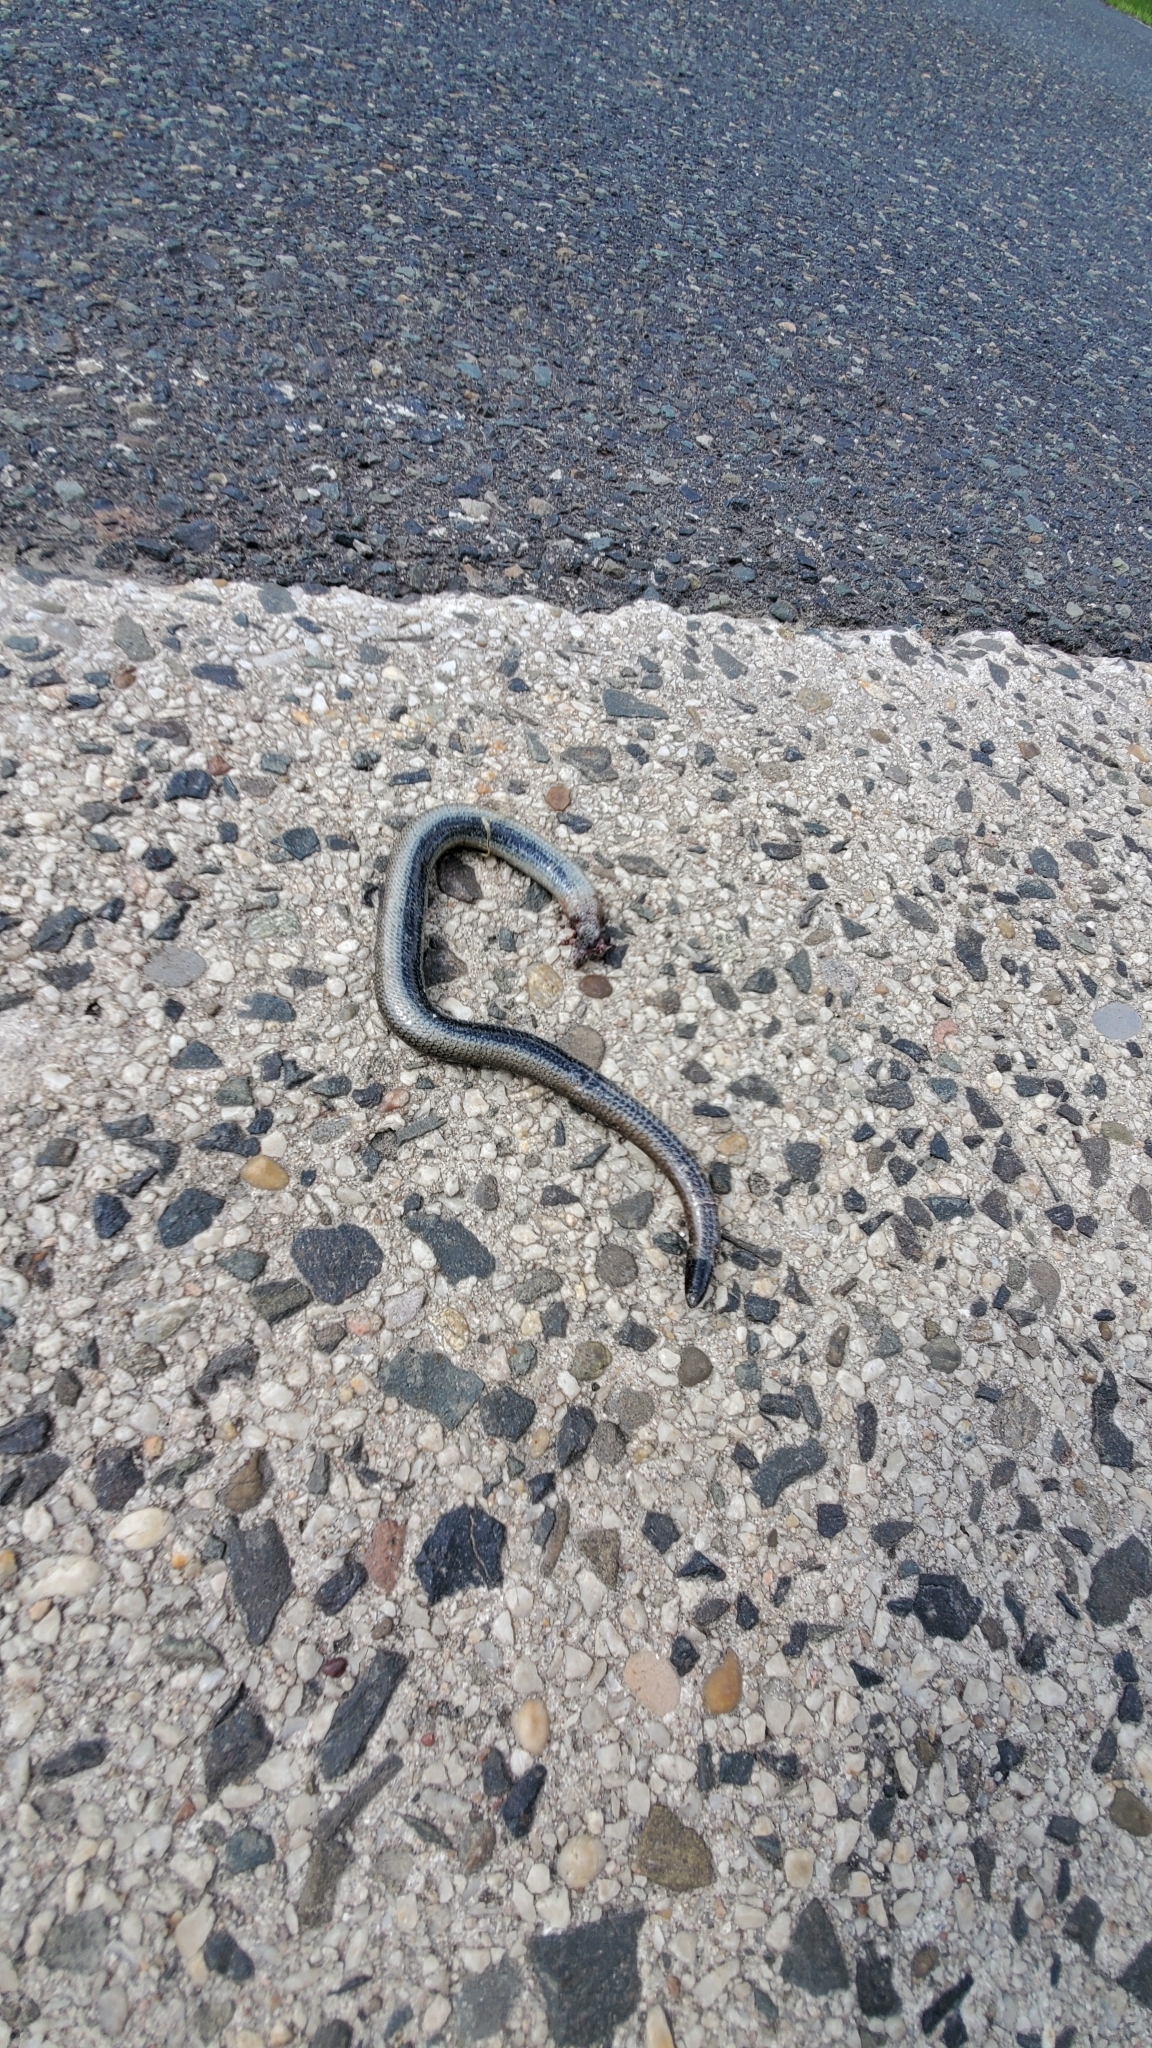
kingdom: Animalia
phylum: Chordata
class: Squamata
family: Anguidae
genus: Anguis
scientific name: Anguis fragilis
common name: Slow worm
